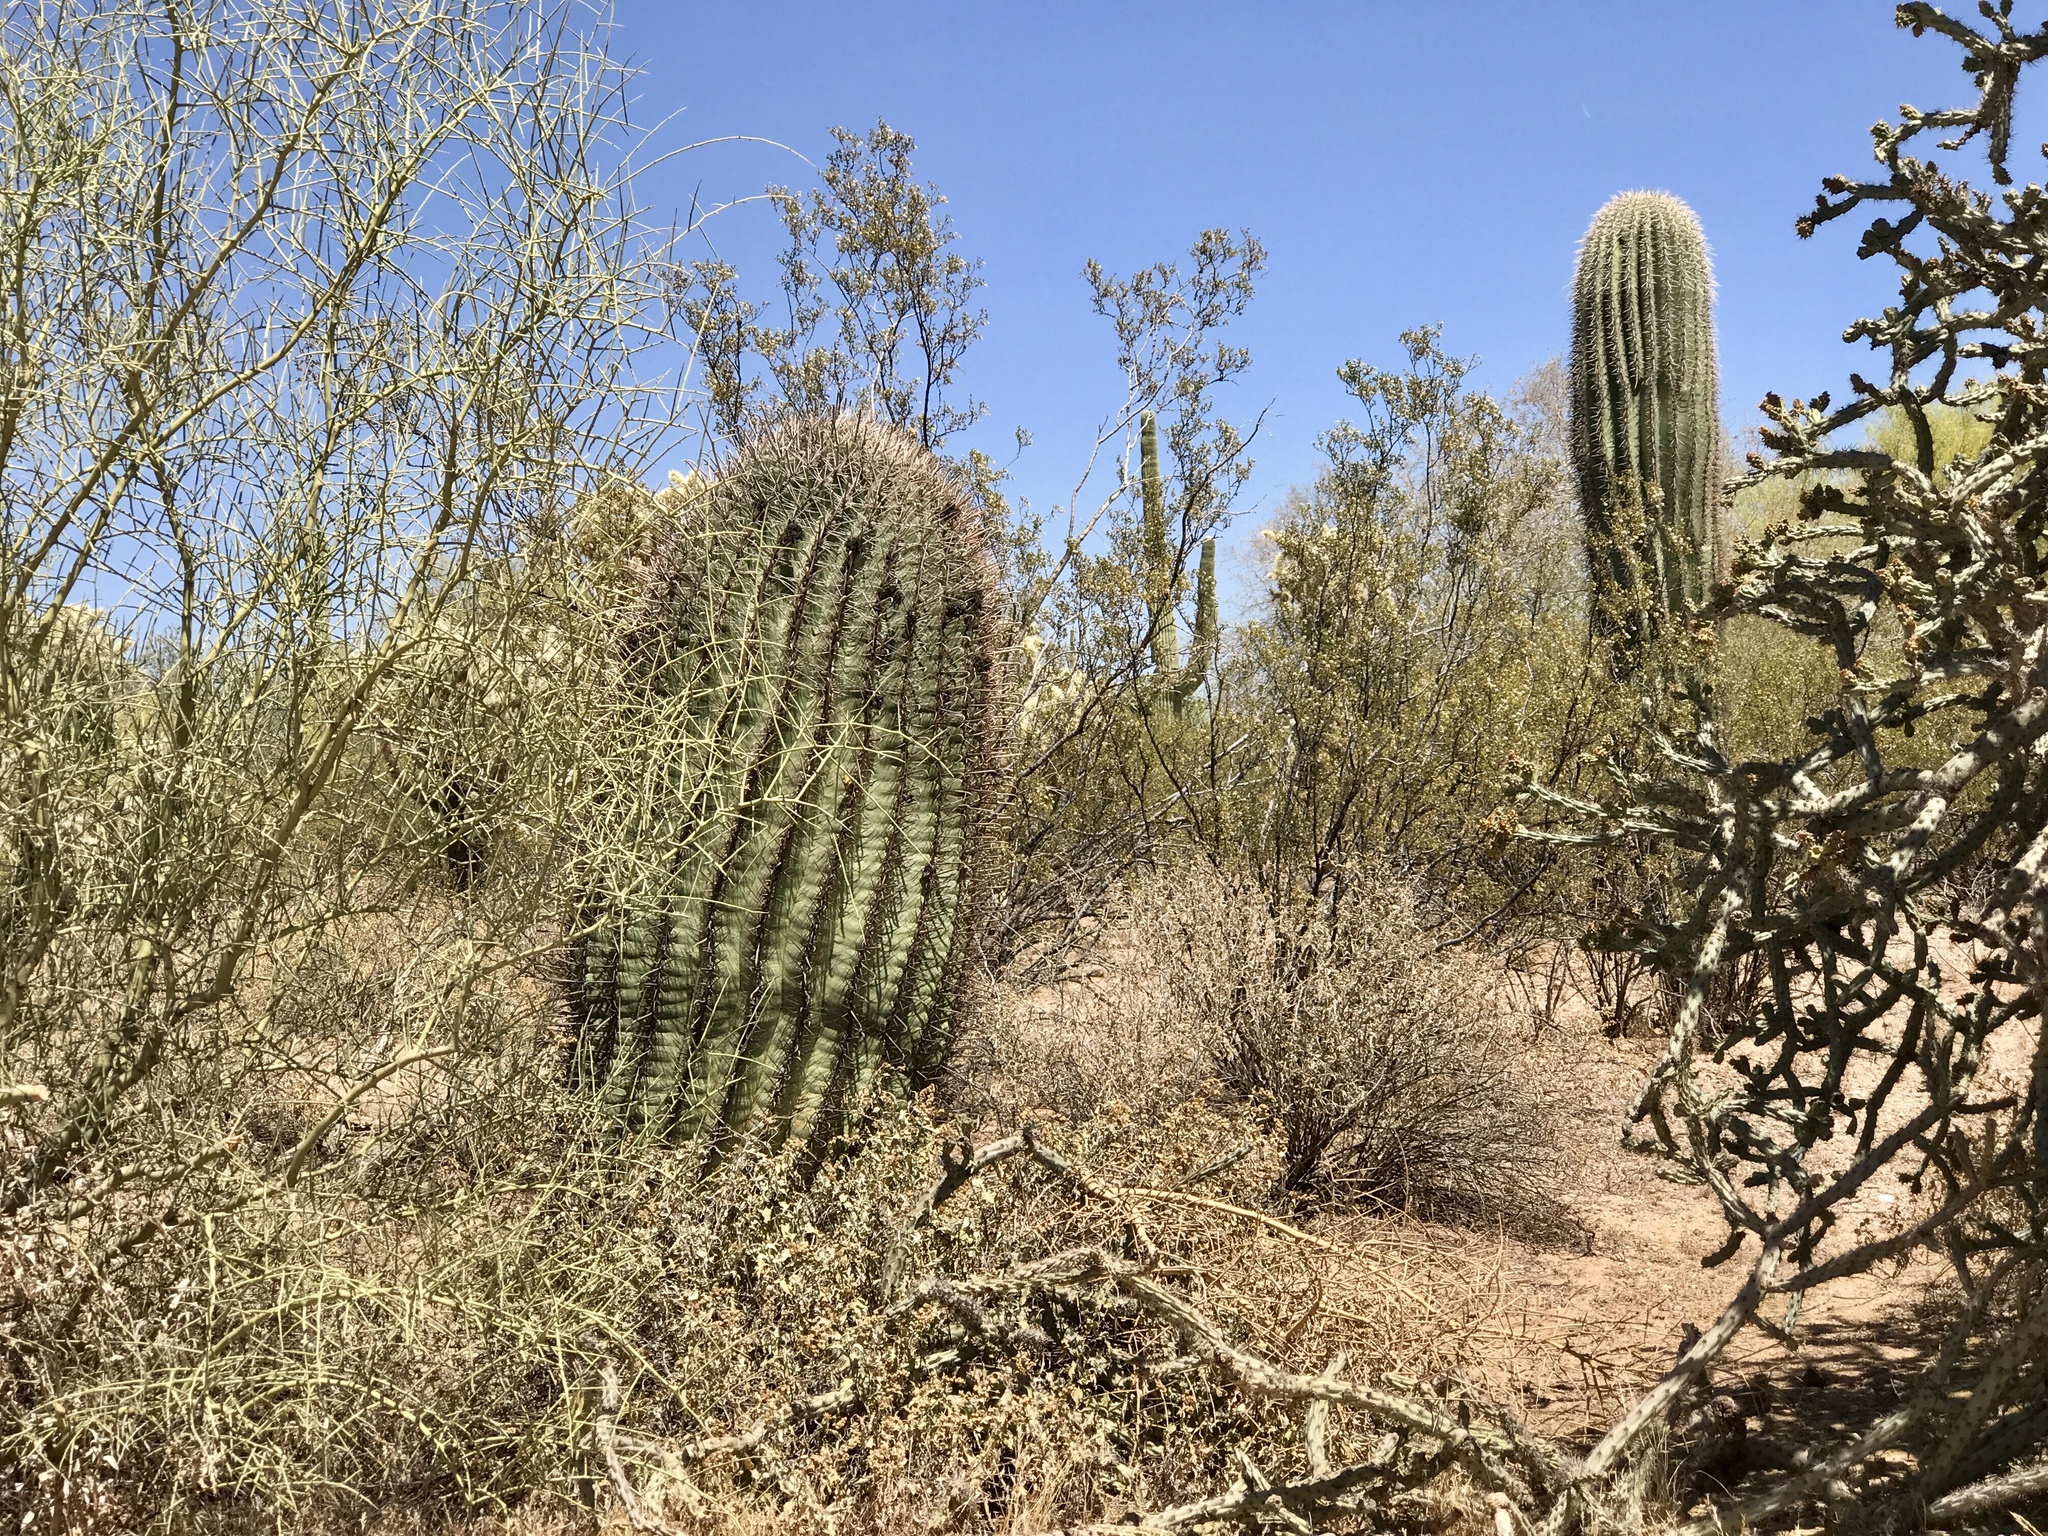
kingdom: Plantae
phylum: Tracheophyta
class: Magnoliopsida
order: Caryophyllales
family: Cactaceae
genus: Ferocactus
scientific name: Ferocactus wislizeni
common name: Candy barrel cactus
